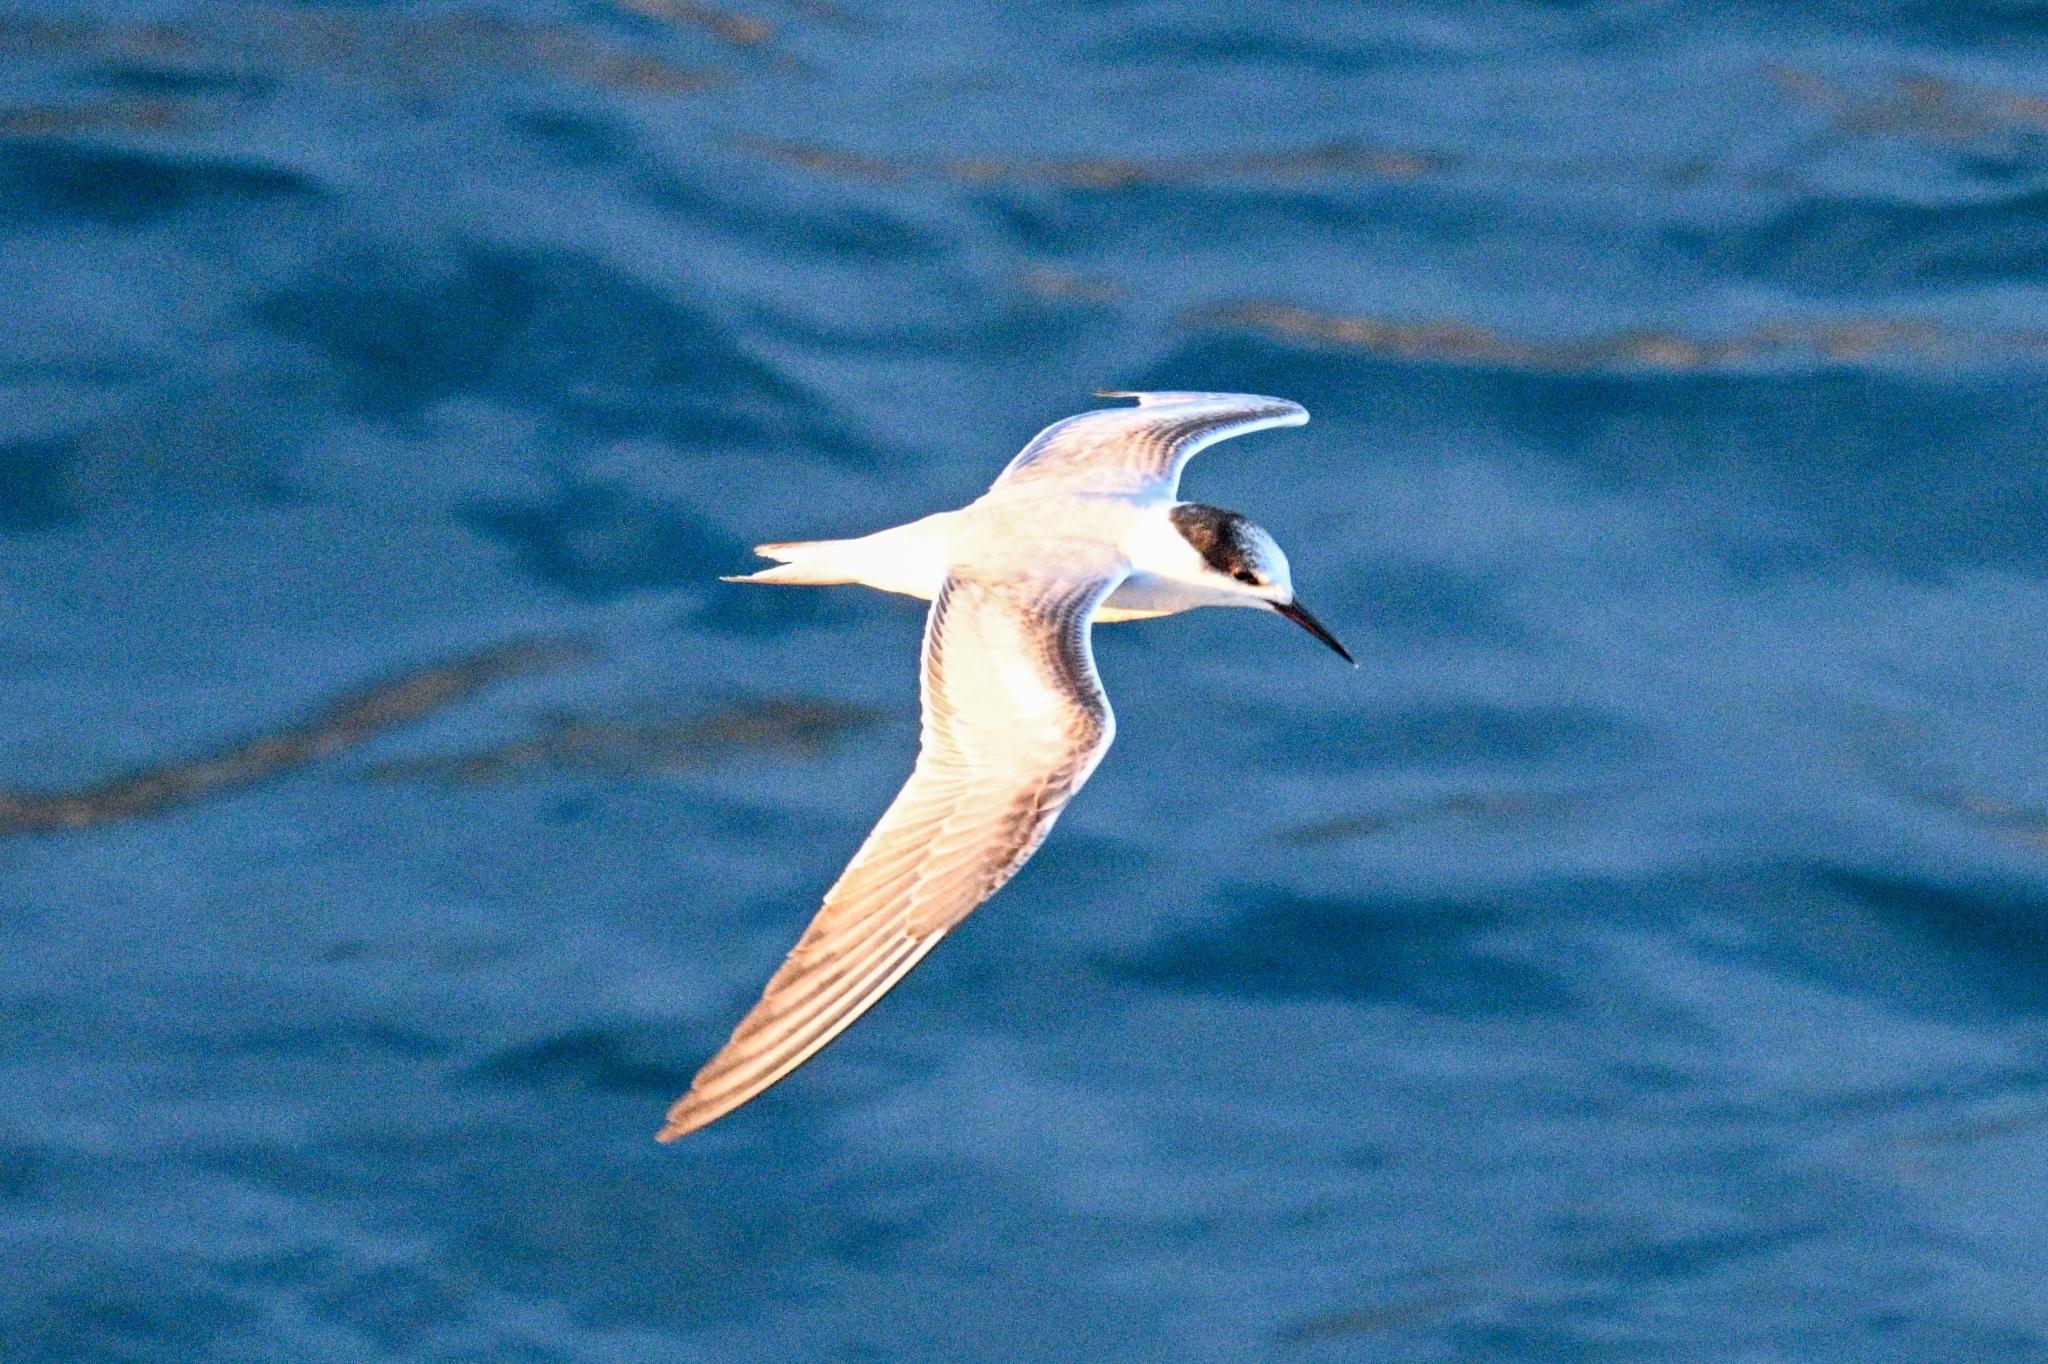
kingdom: Animalia
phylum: Chordata
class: Aves
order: Charadriiformes
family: Laridae
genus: Sterna
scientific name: Sterna hirundo
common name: Common tern
